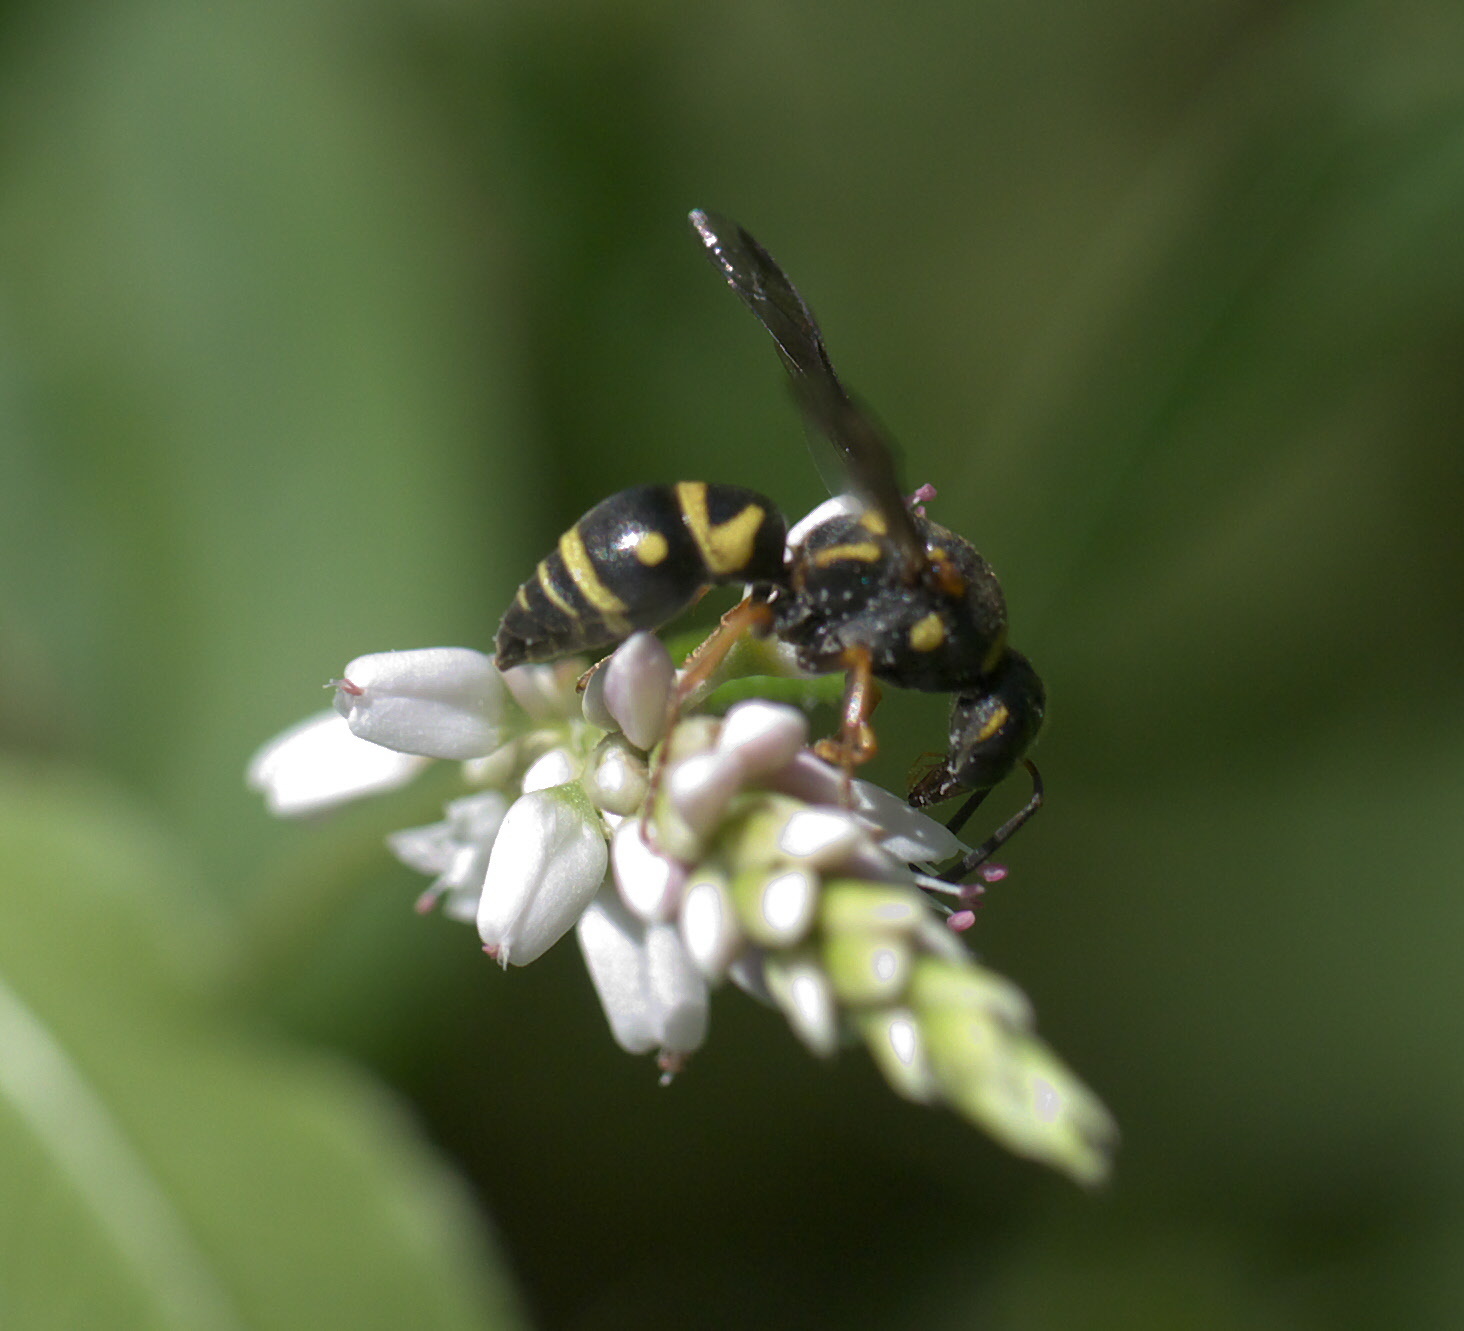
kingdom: Animalia
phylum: Arthropoda
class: Insecta
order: Hymenoptera
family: Eumenidae
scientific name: Eumenidae
